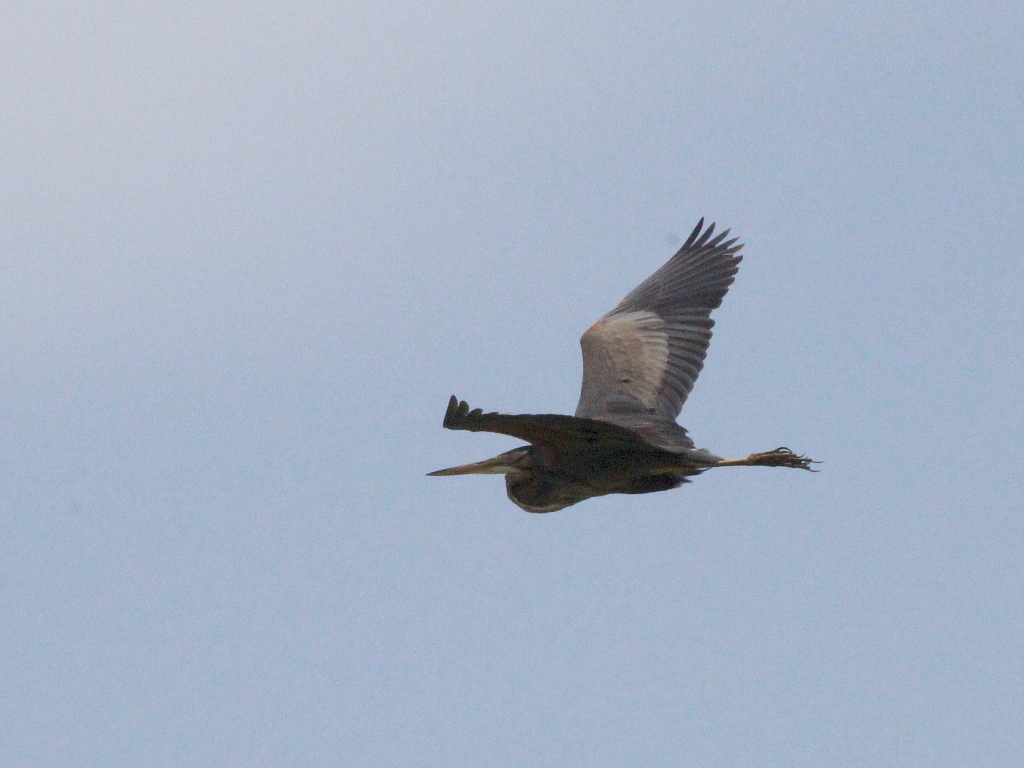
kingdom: Animalia
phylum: Chordata
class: Aves
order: Pelecaniformes
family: Ardeidae
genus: Ardea
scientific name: Ardea purpurea
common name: Purple heron
